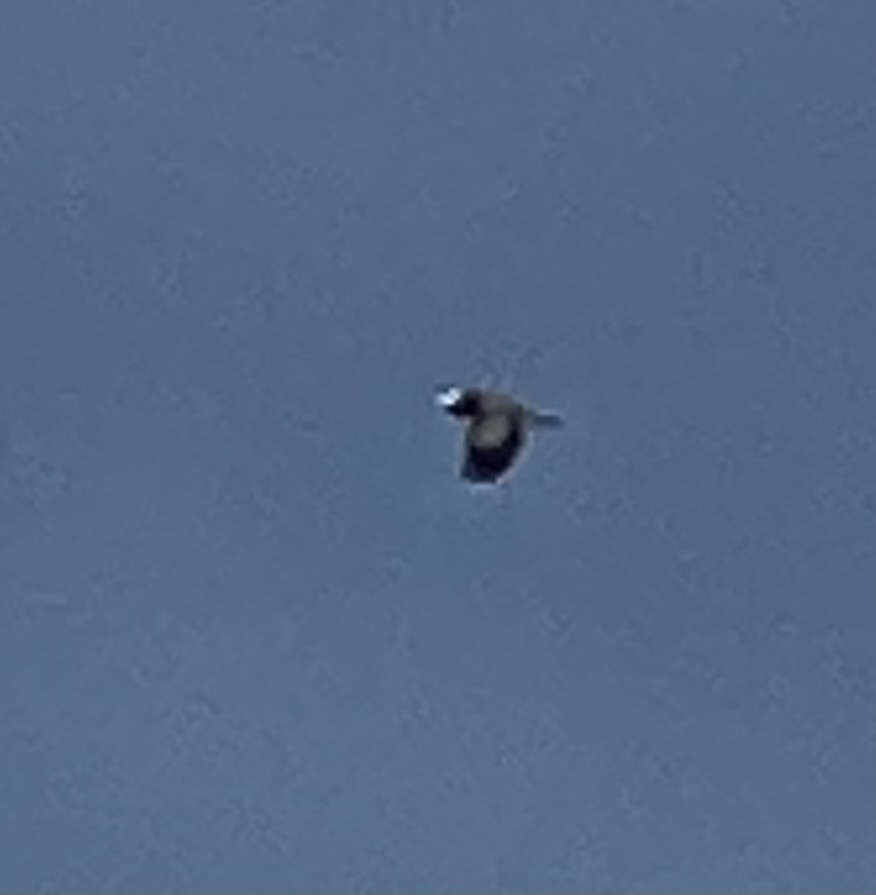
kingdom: Animalia
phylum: Chordata
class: Aves
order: Pelecaniformes
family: Ardeidae
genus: Ardea
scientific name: Ardea herodias
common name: Great blue heron
